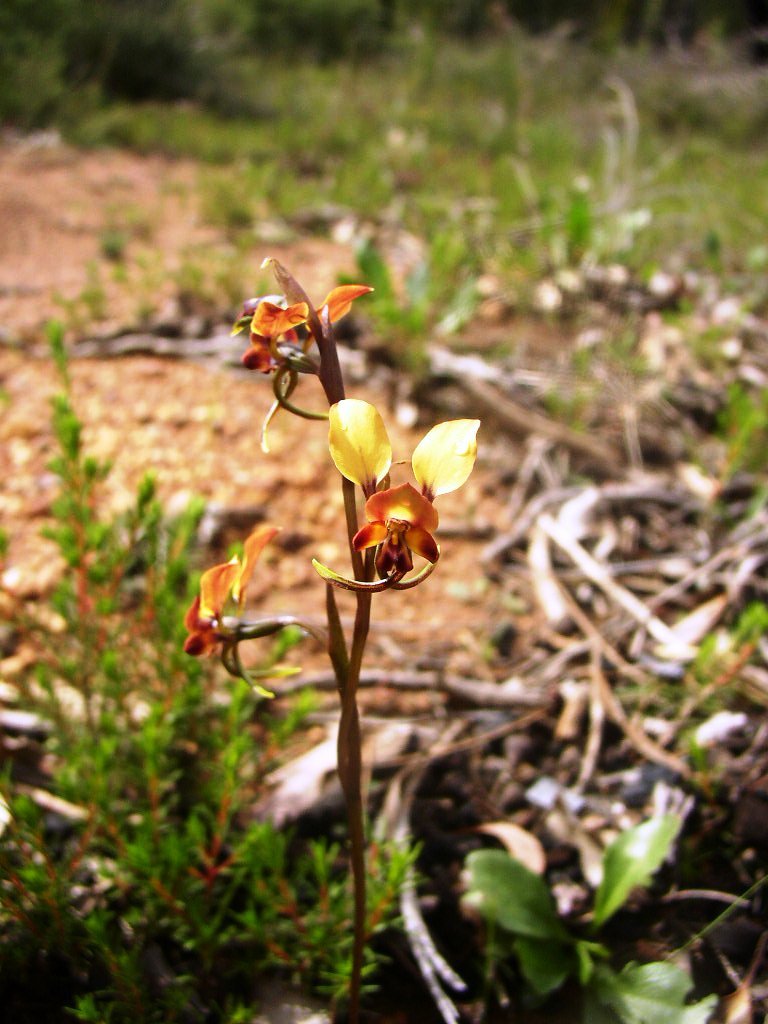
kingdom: Plantae
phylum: Tracheophyta
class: Liliopsida
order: Asparagales
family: Orchidaceae
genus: Diuris
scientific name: Diuris corymbosa
